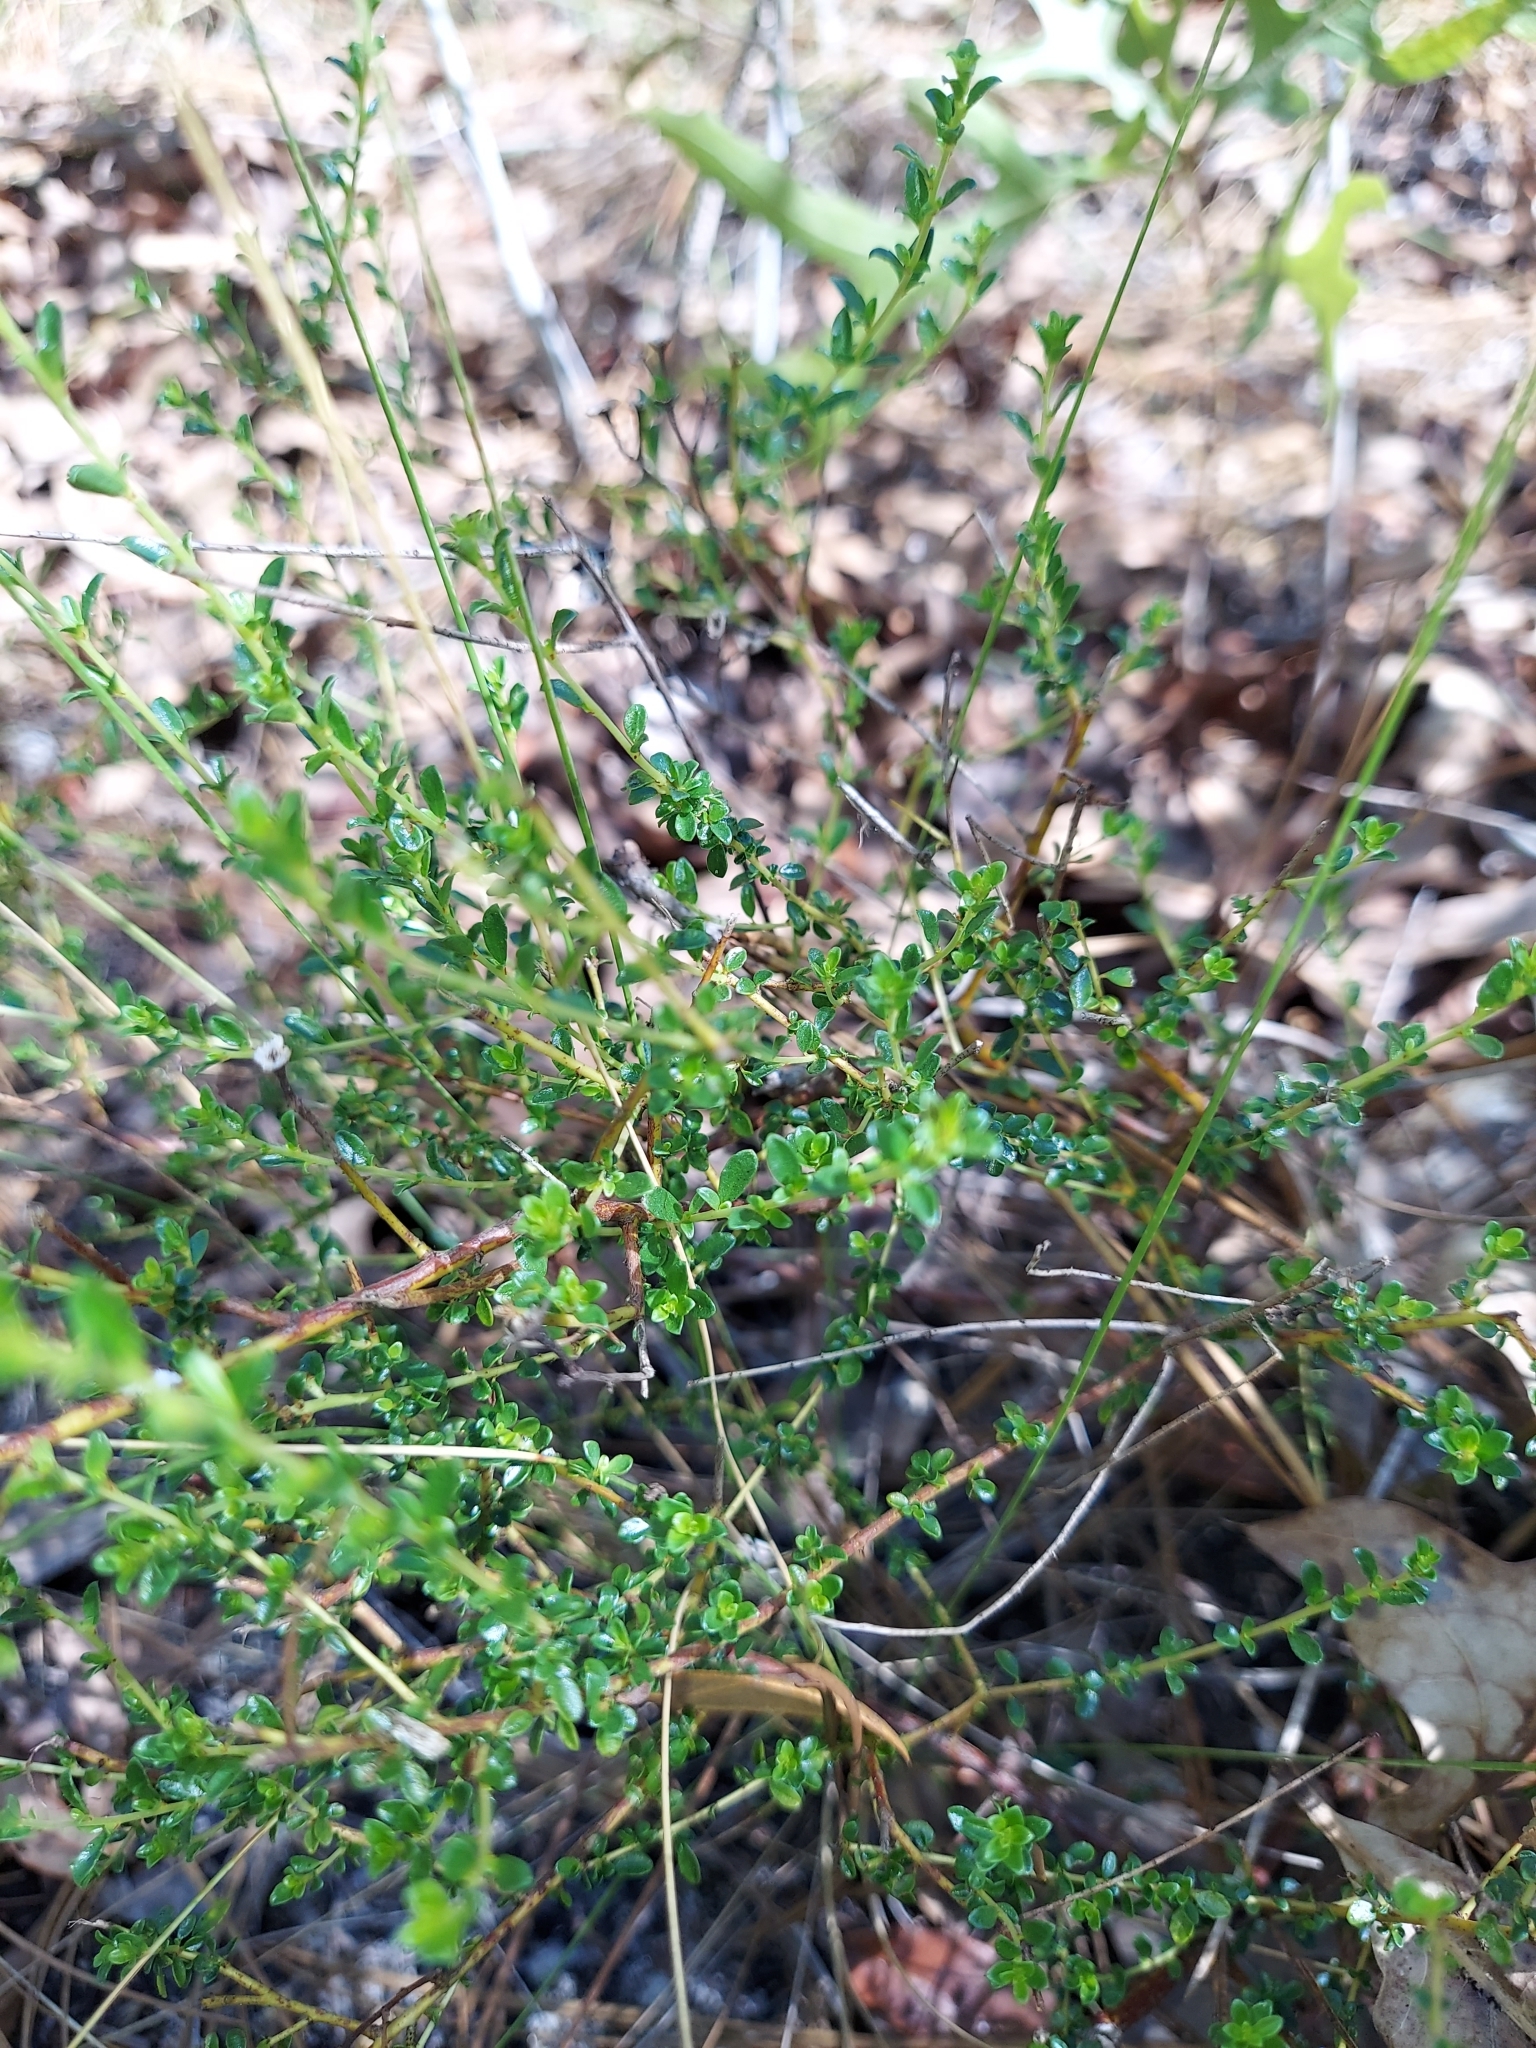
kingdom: Plantae
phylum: Tracheophyta
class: Magnoliopsida
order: Rosales
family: Rhamnaceae
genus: Ceanothus
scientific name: Ceanothus microphyllus
